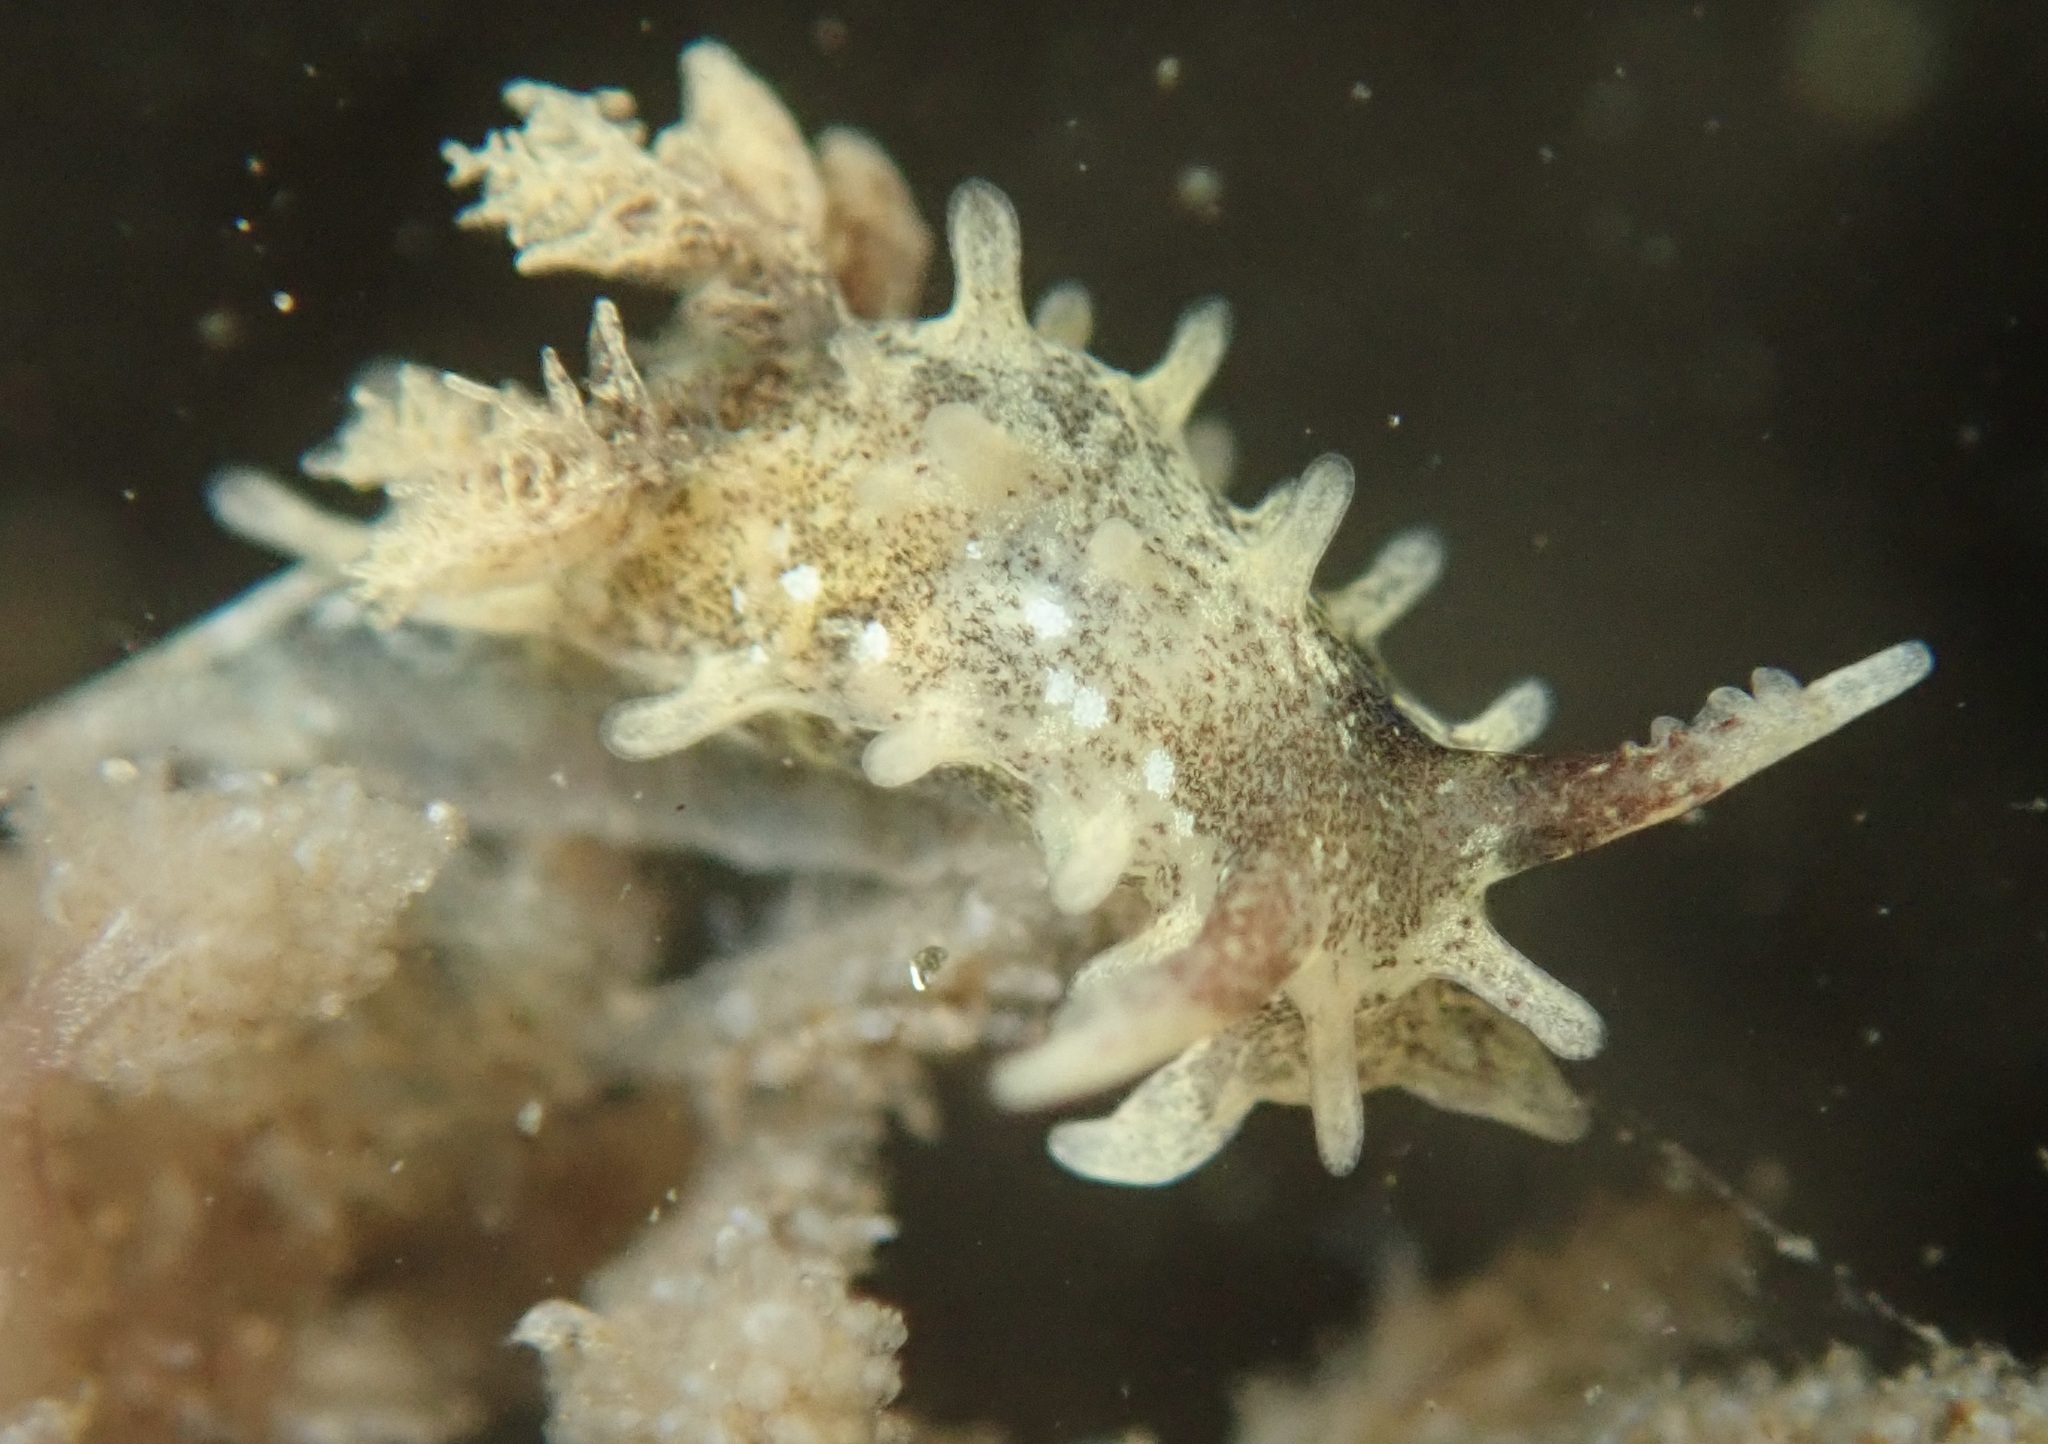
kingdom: Animalia
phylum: Mollusca
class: Gastropoda
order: Nudibranchia
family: Goniodorididae
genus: Okenia
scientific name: Okenia
